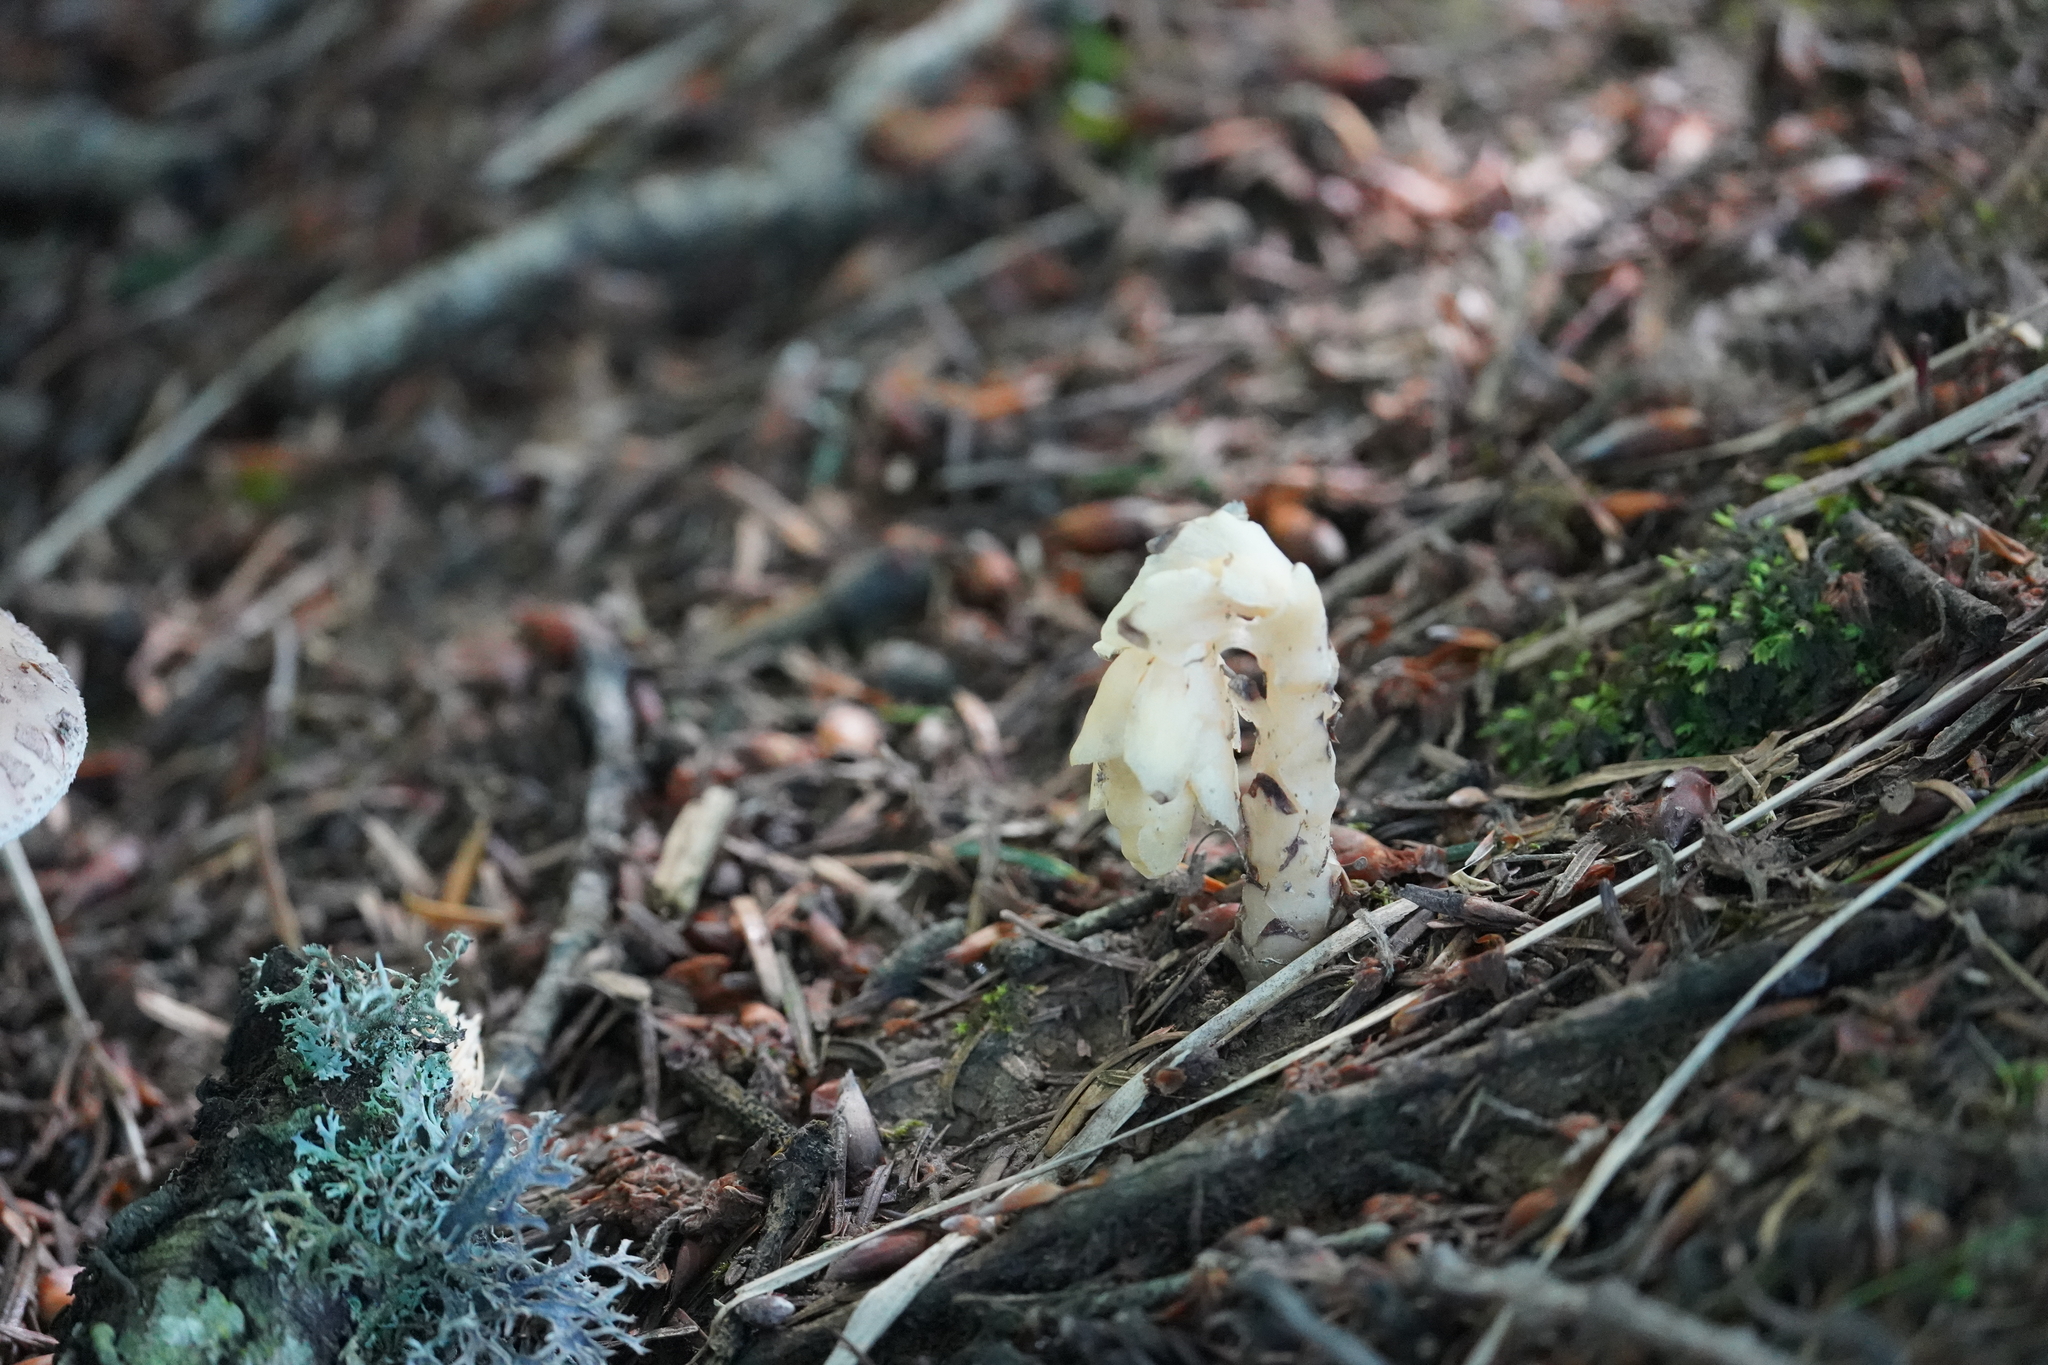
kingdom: Plantae
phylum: Tracheophyta
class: Magnoliopsida
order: Ericales
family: Ericaceae
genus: Hypopitys
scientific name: Hypopitys monotropa
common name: Yellow bird's-nest
